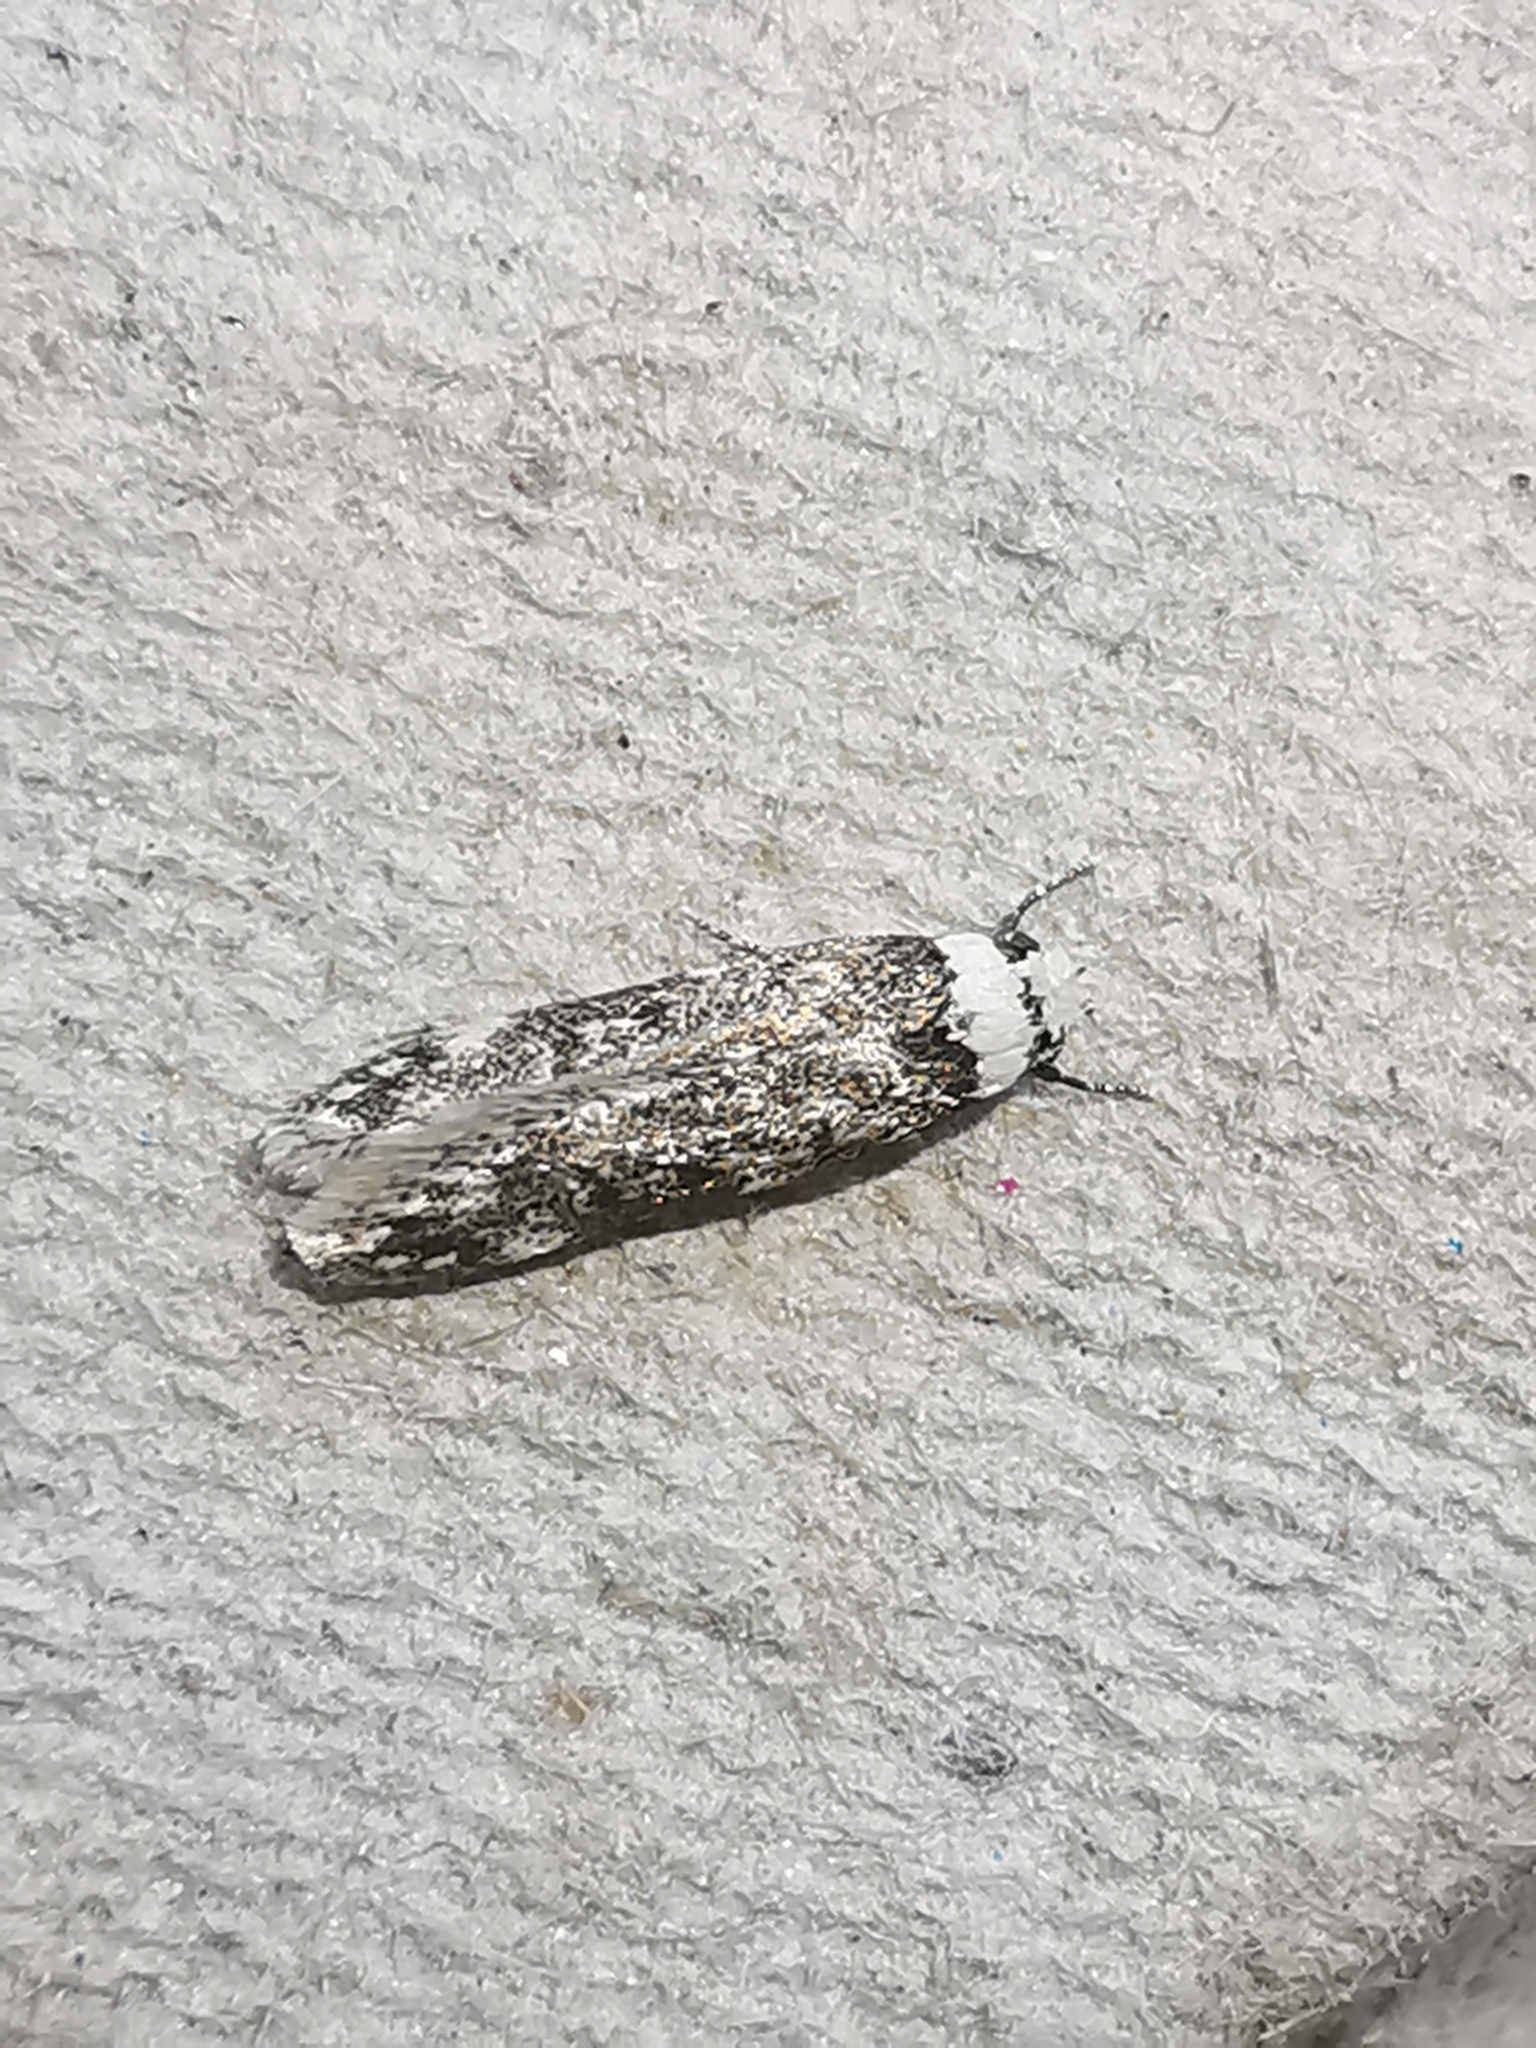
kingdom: Animalia
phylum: Arthropoda
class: Insecta
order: Lepidoptera
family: Oecophoridae
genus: Endrosis
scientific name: Endrosis sarcitrella
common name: White-shouldered house moth
